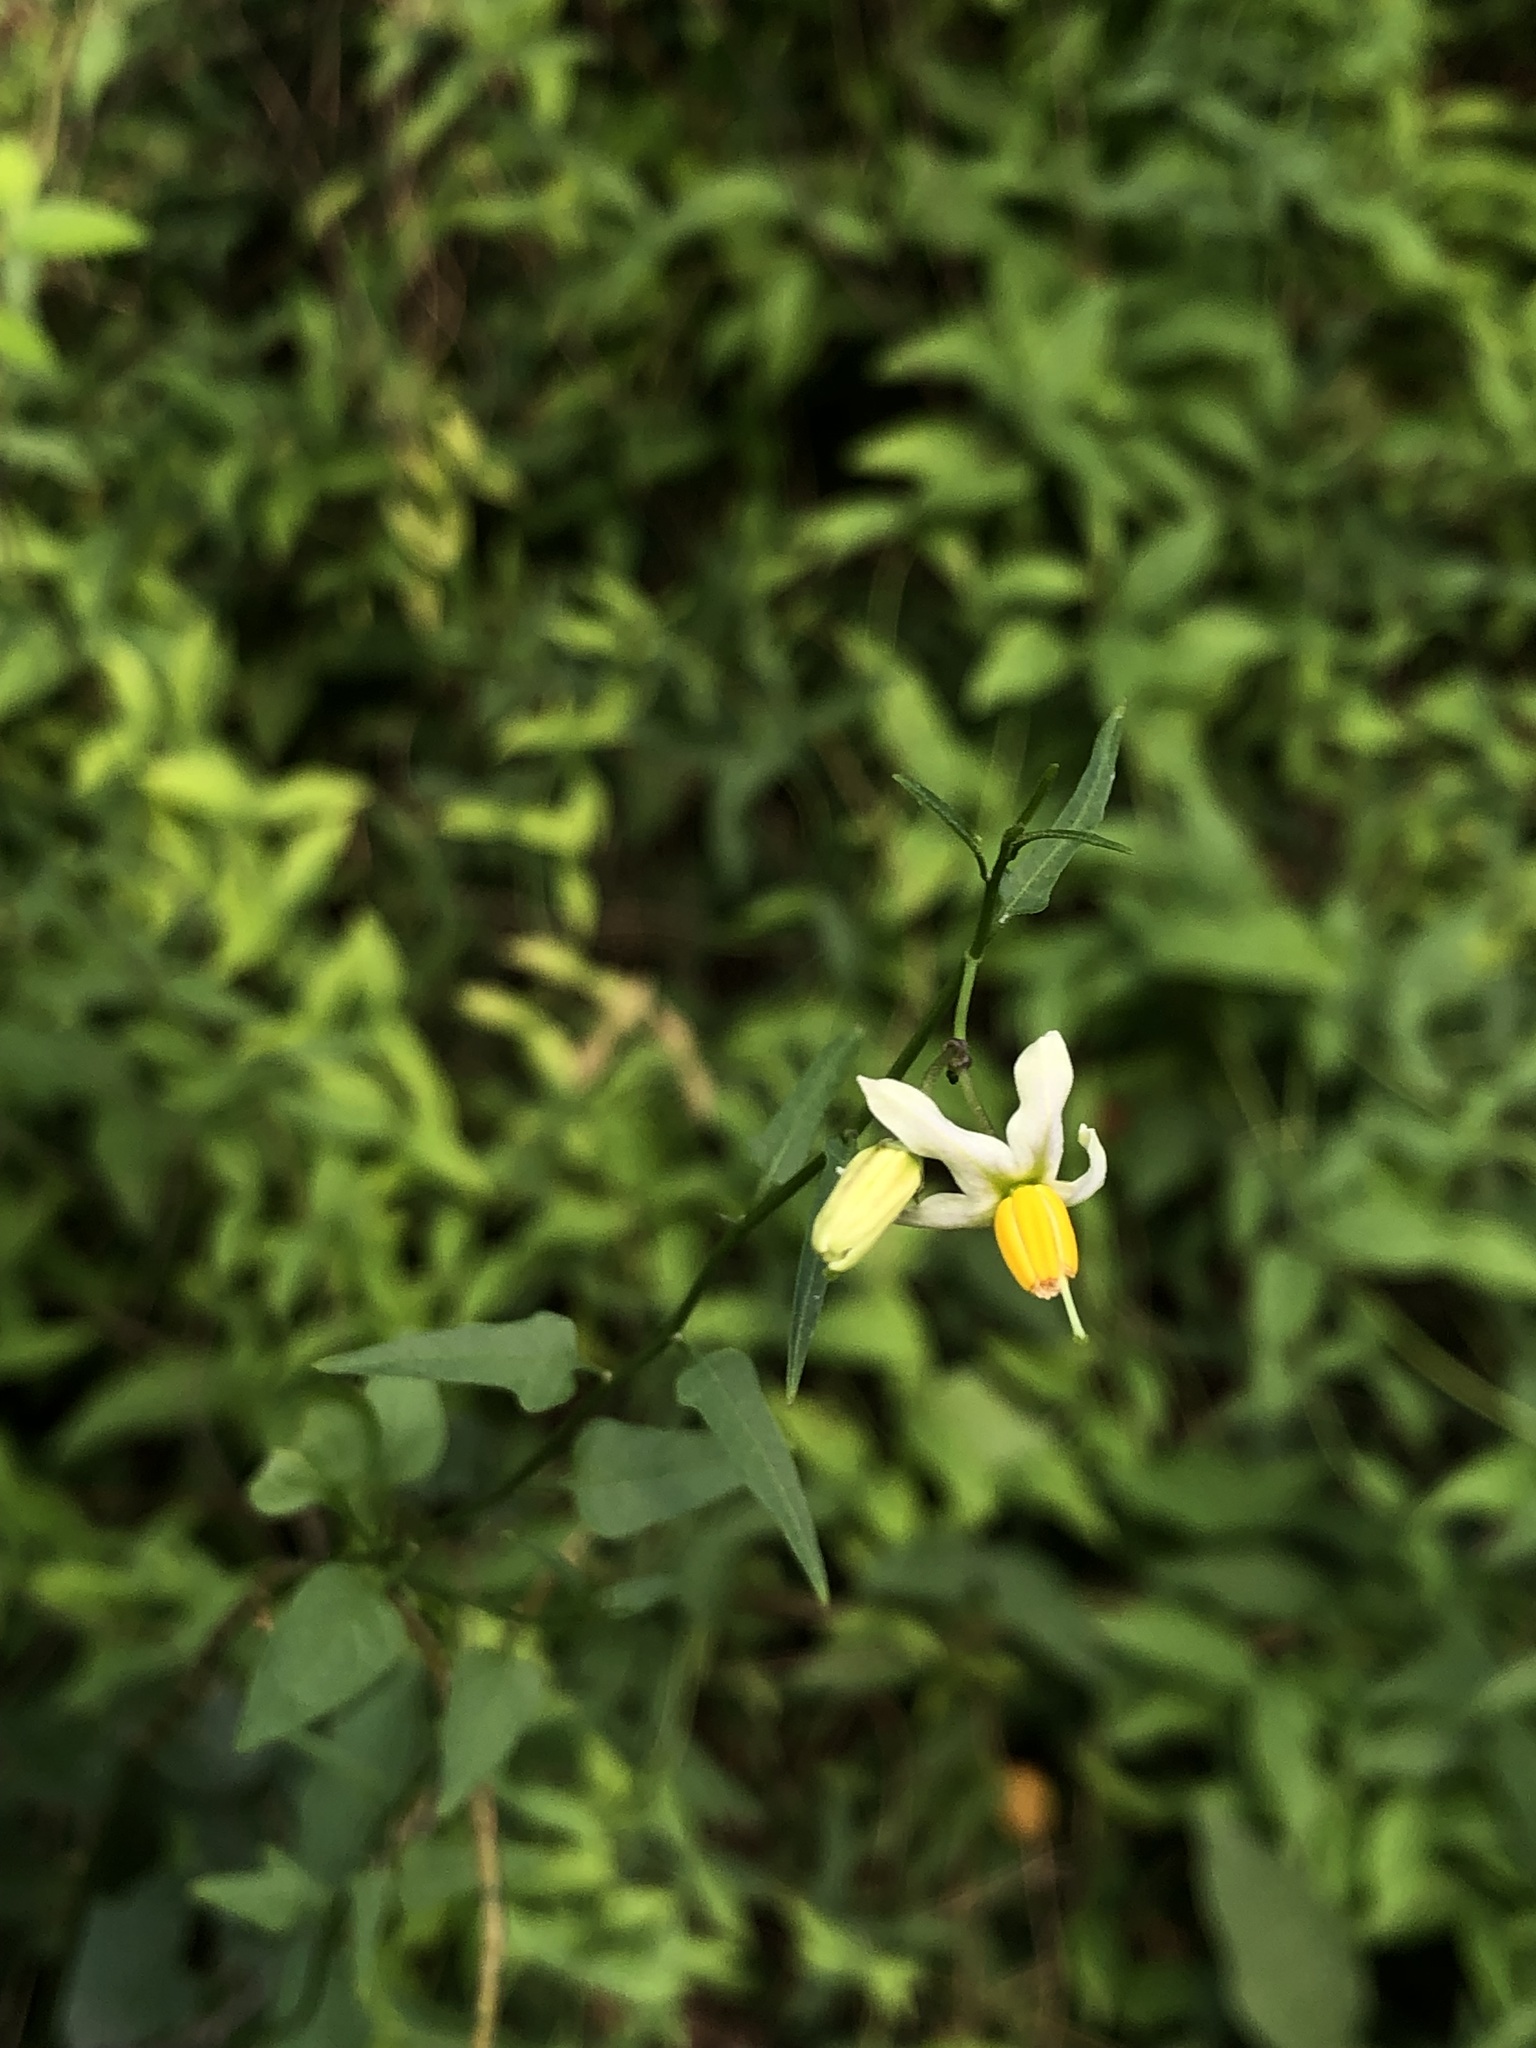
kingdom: Plantae
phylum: Tracheophyta
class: Magnoliopsida
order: Solanales
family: Solanaceae
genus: Solanum
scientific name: Solanum triquetrum
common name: Texas nightshade
